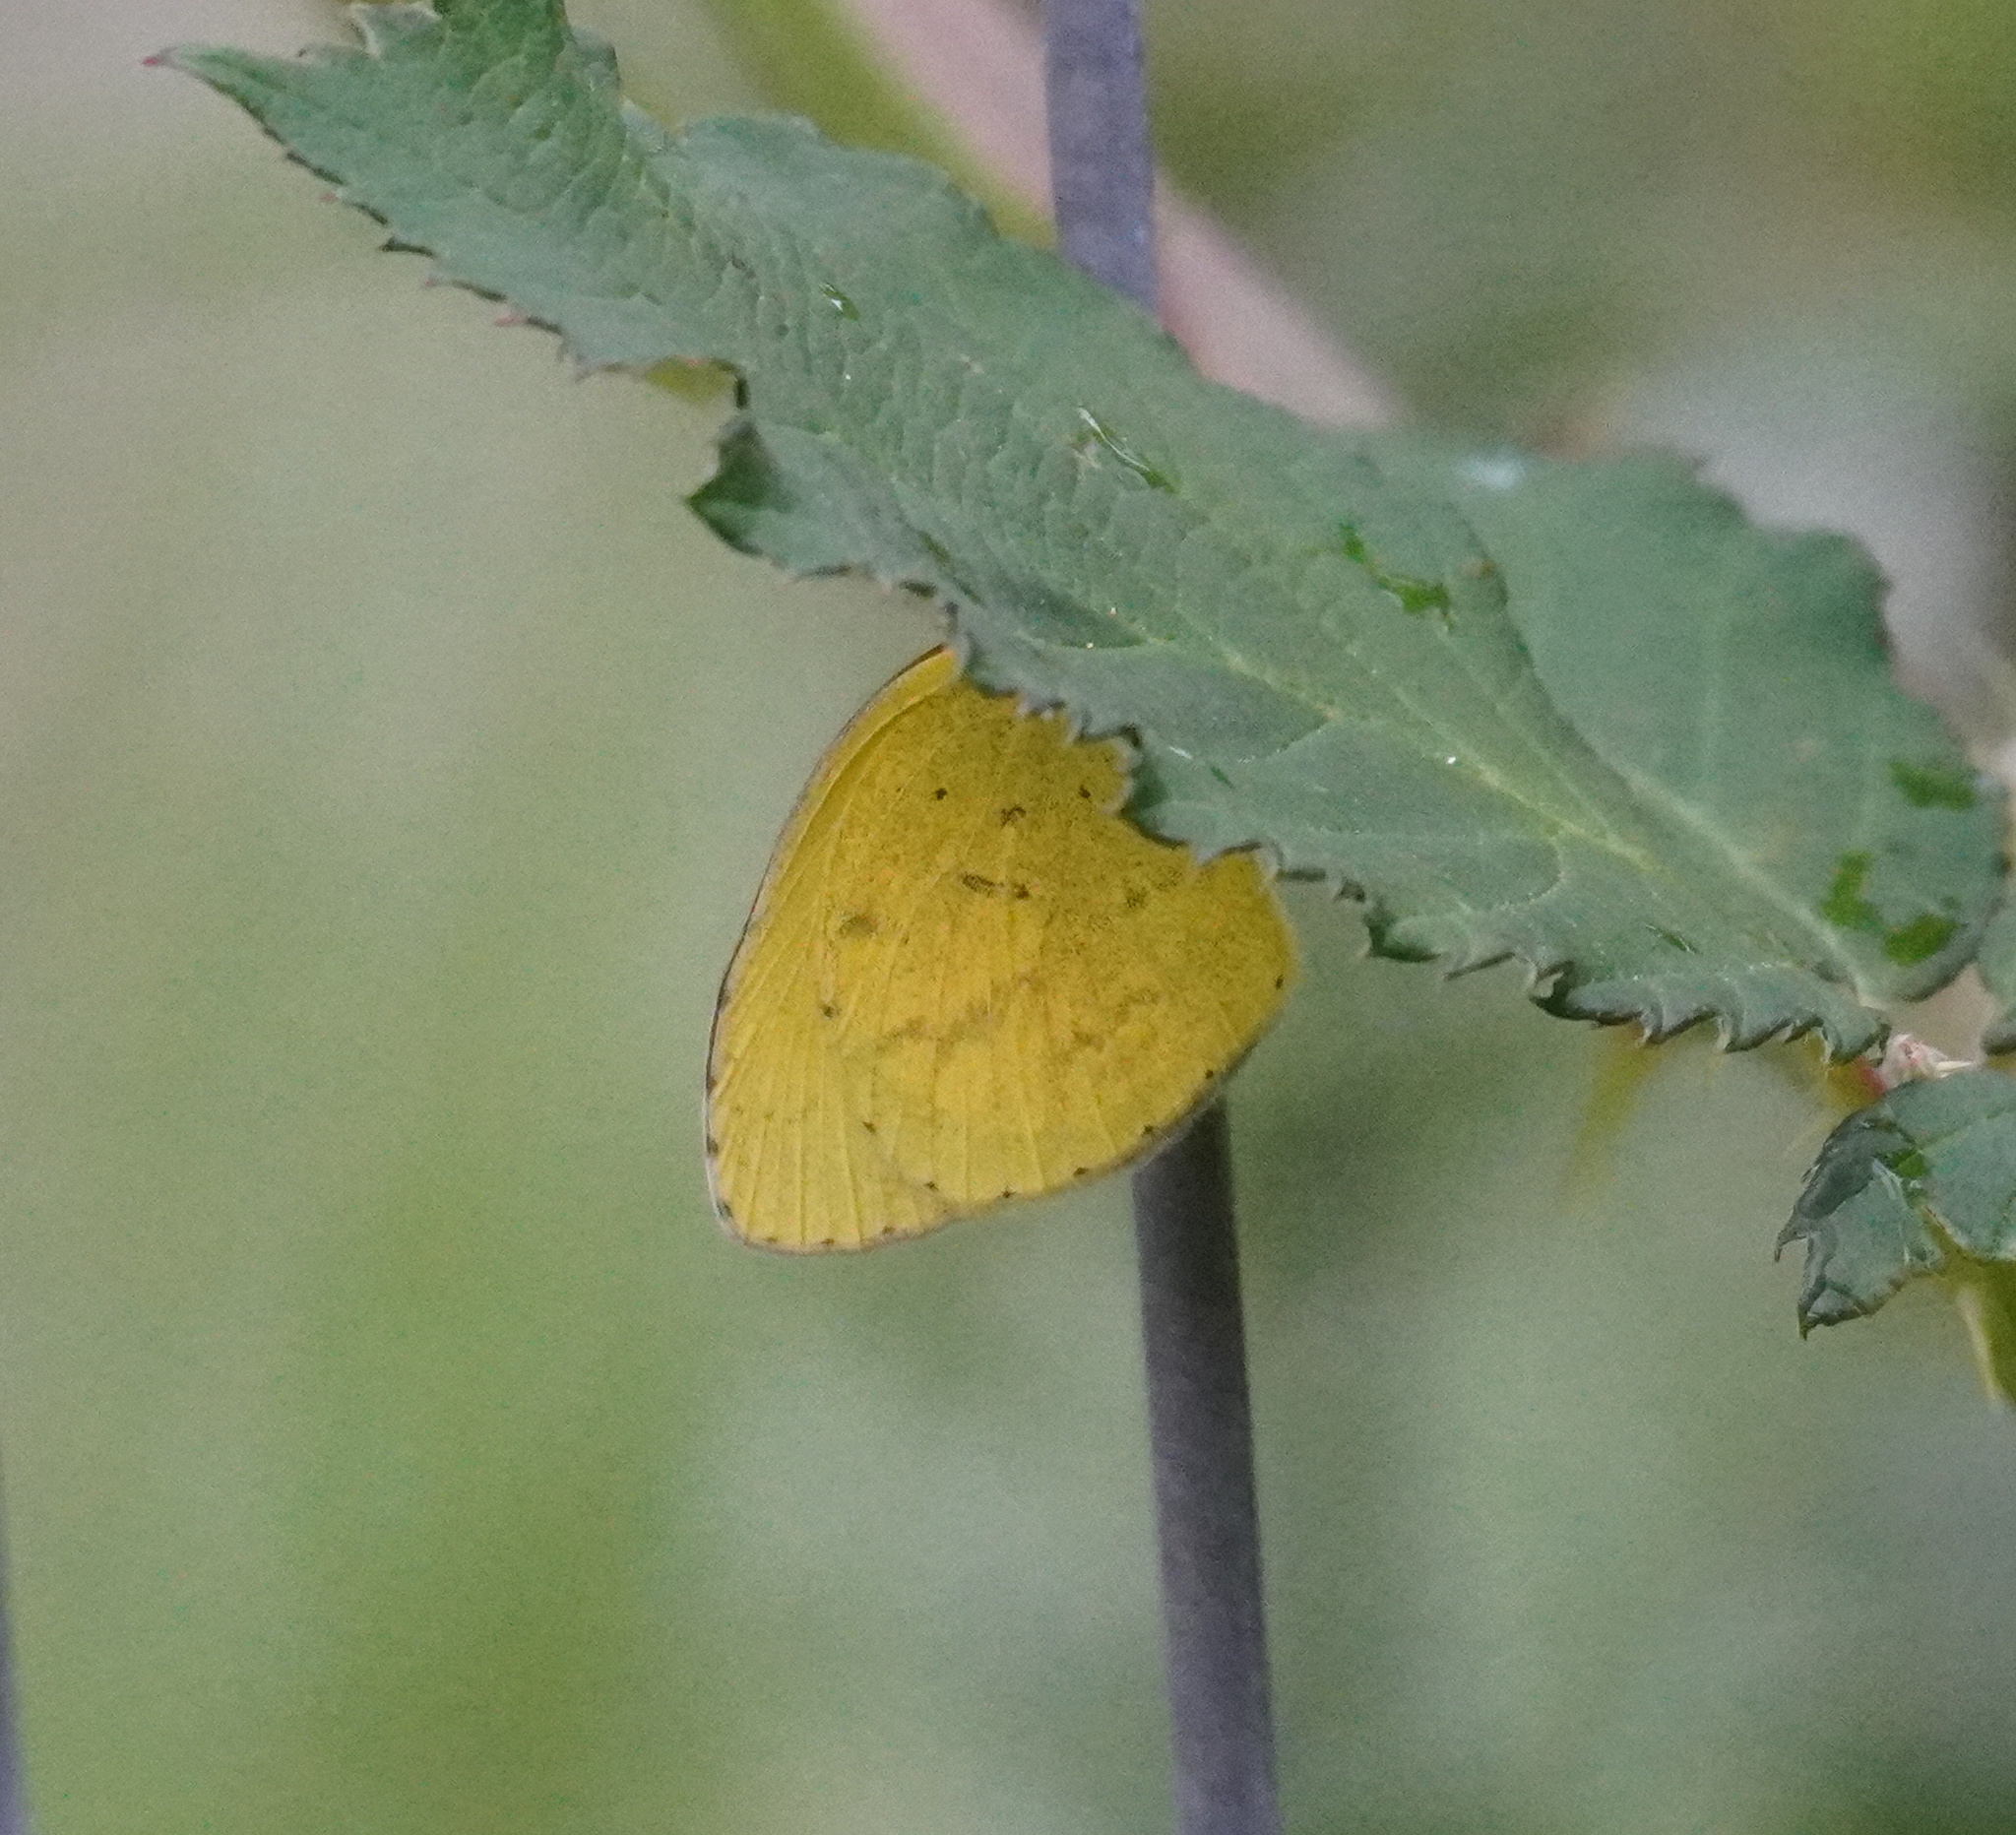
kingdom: Animalia
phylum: Arthropoda
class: Insecta
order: Lepidoptera
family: Pieridae
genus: Eurema
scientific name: Eurema brigitta
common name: Small grass yellow
